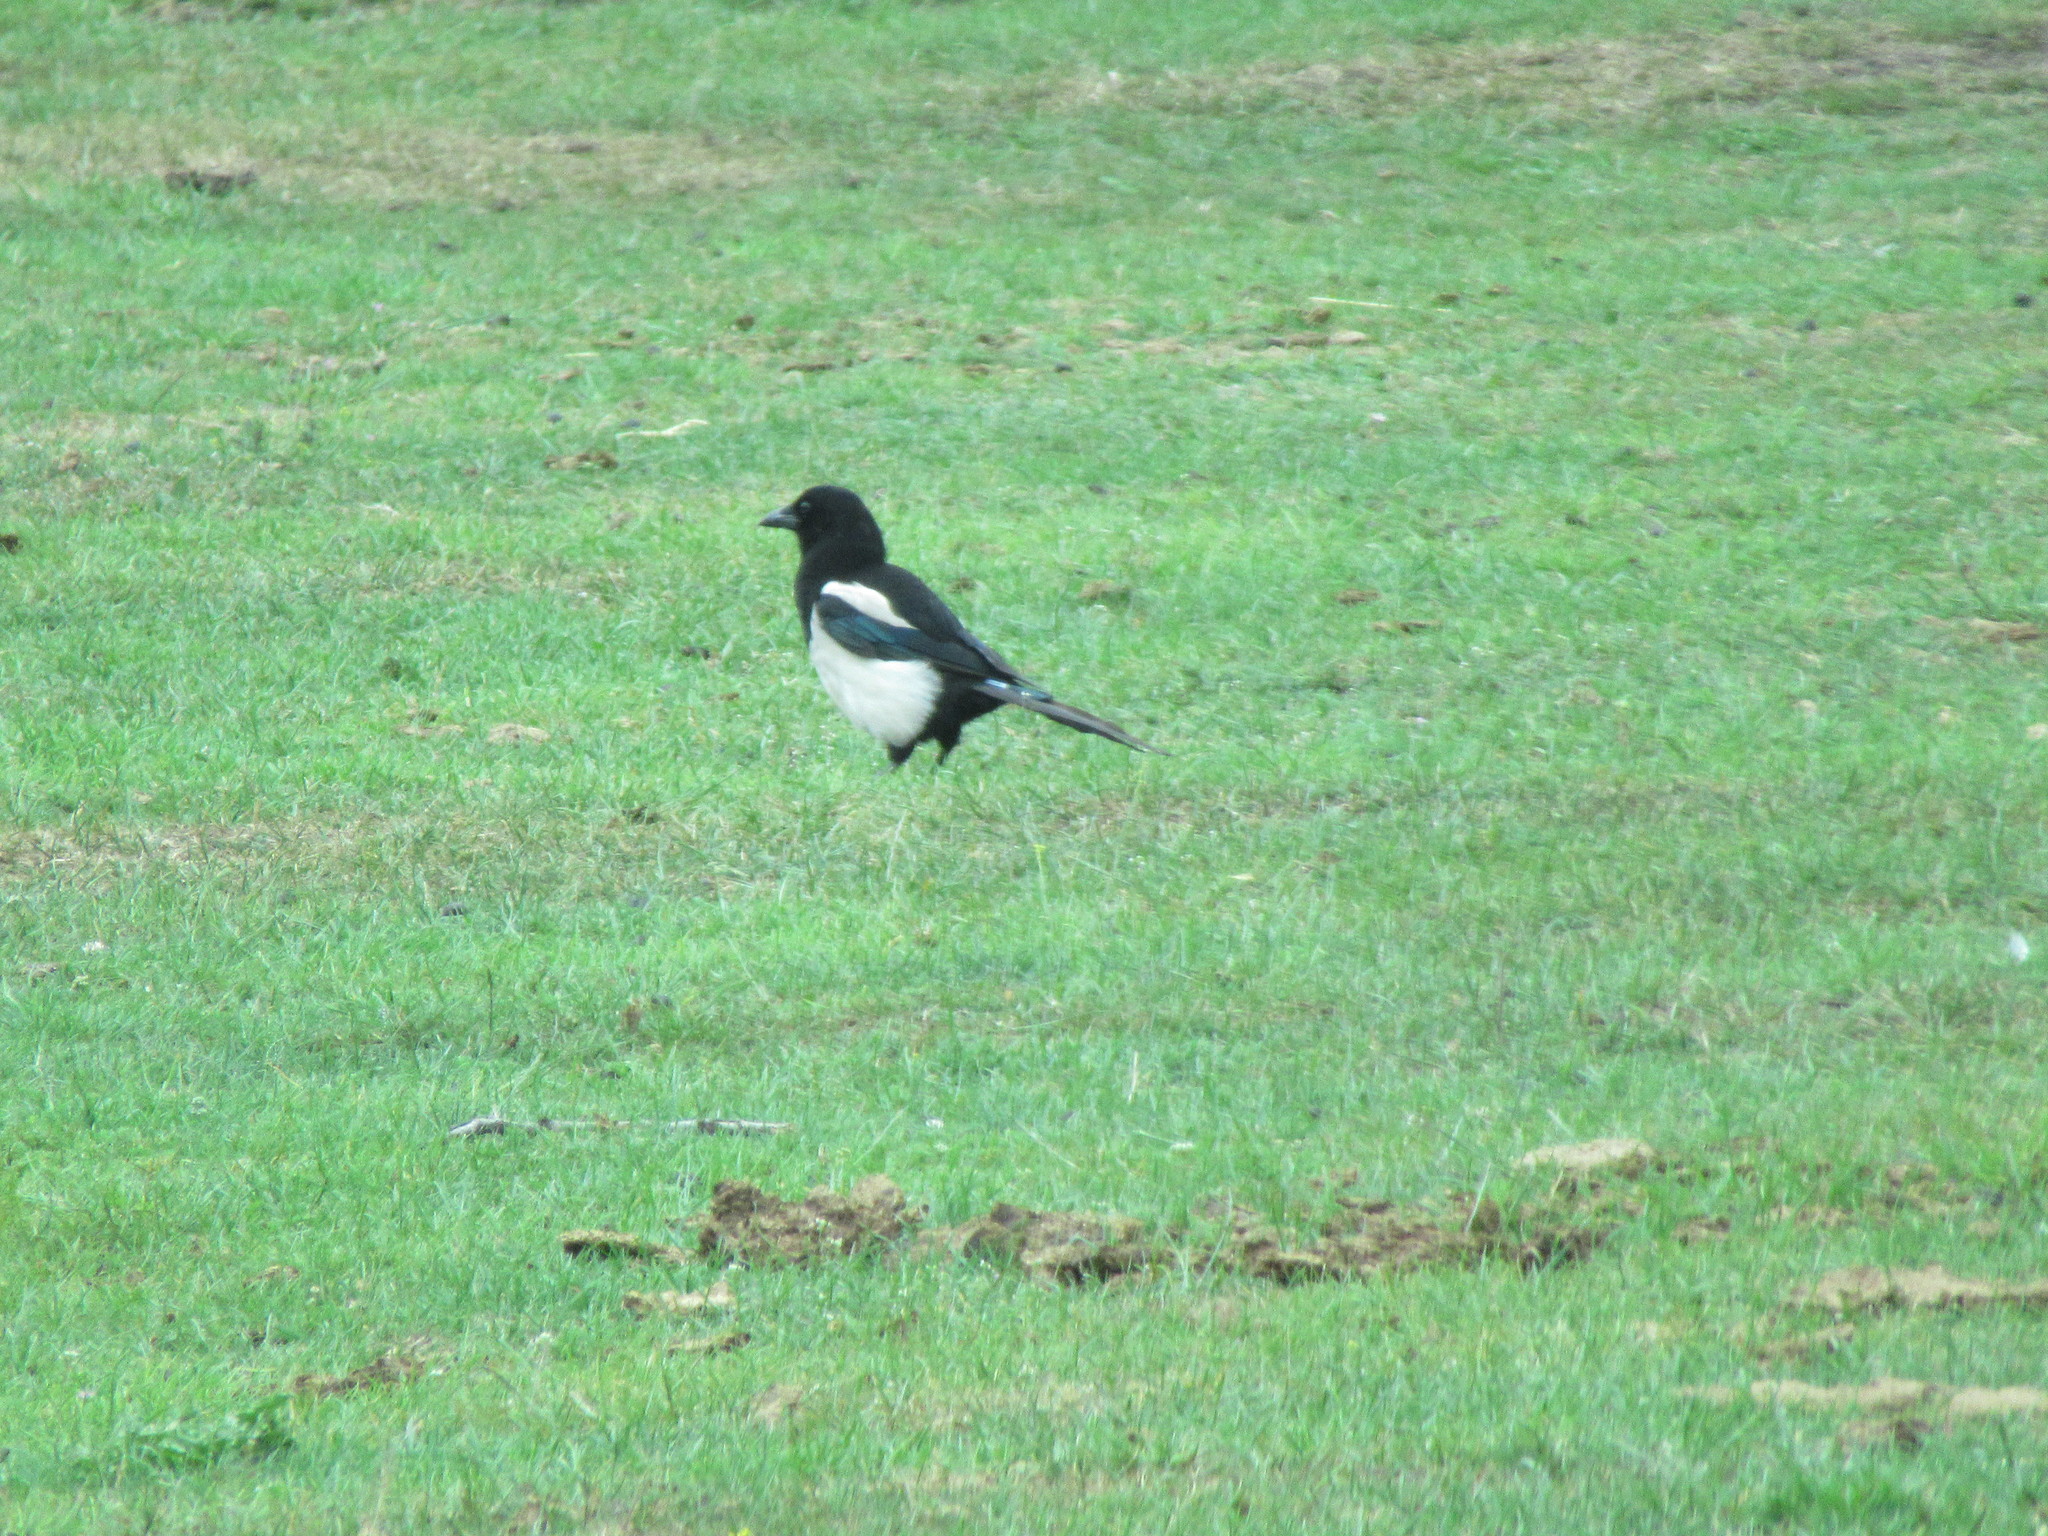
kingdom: Animalia
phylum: Chordata
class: Aves
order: Passeriformes
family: Corvidae
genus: Pica
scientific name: Pica pica
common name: Eurasian magpie
